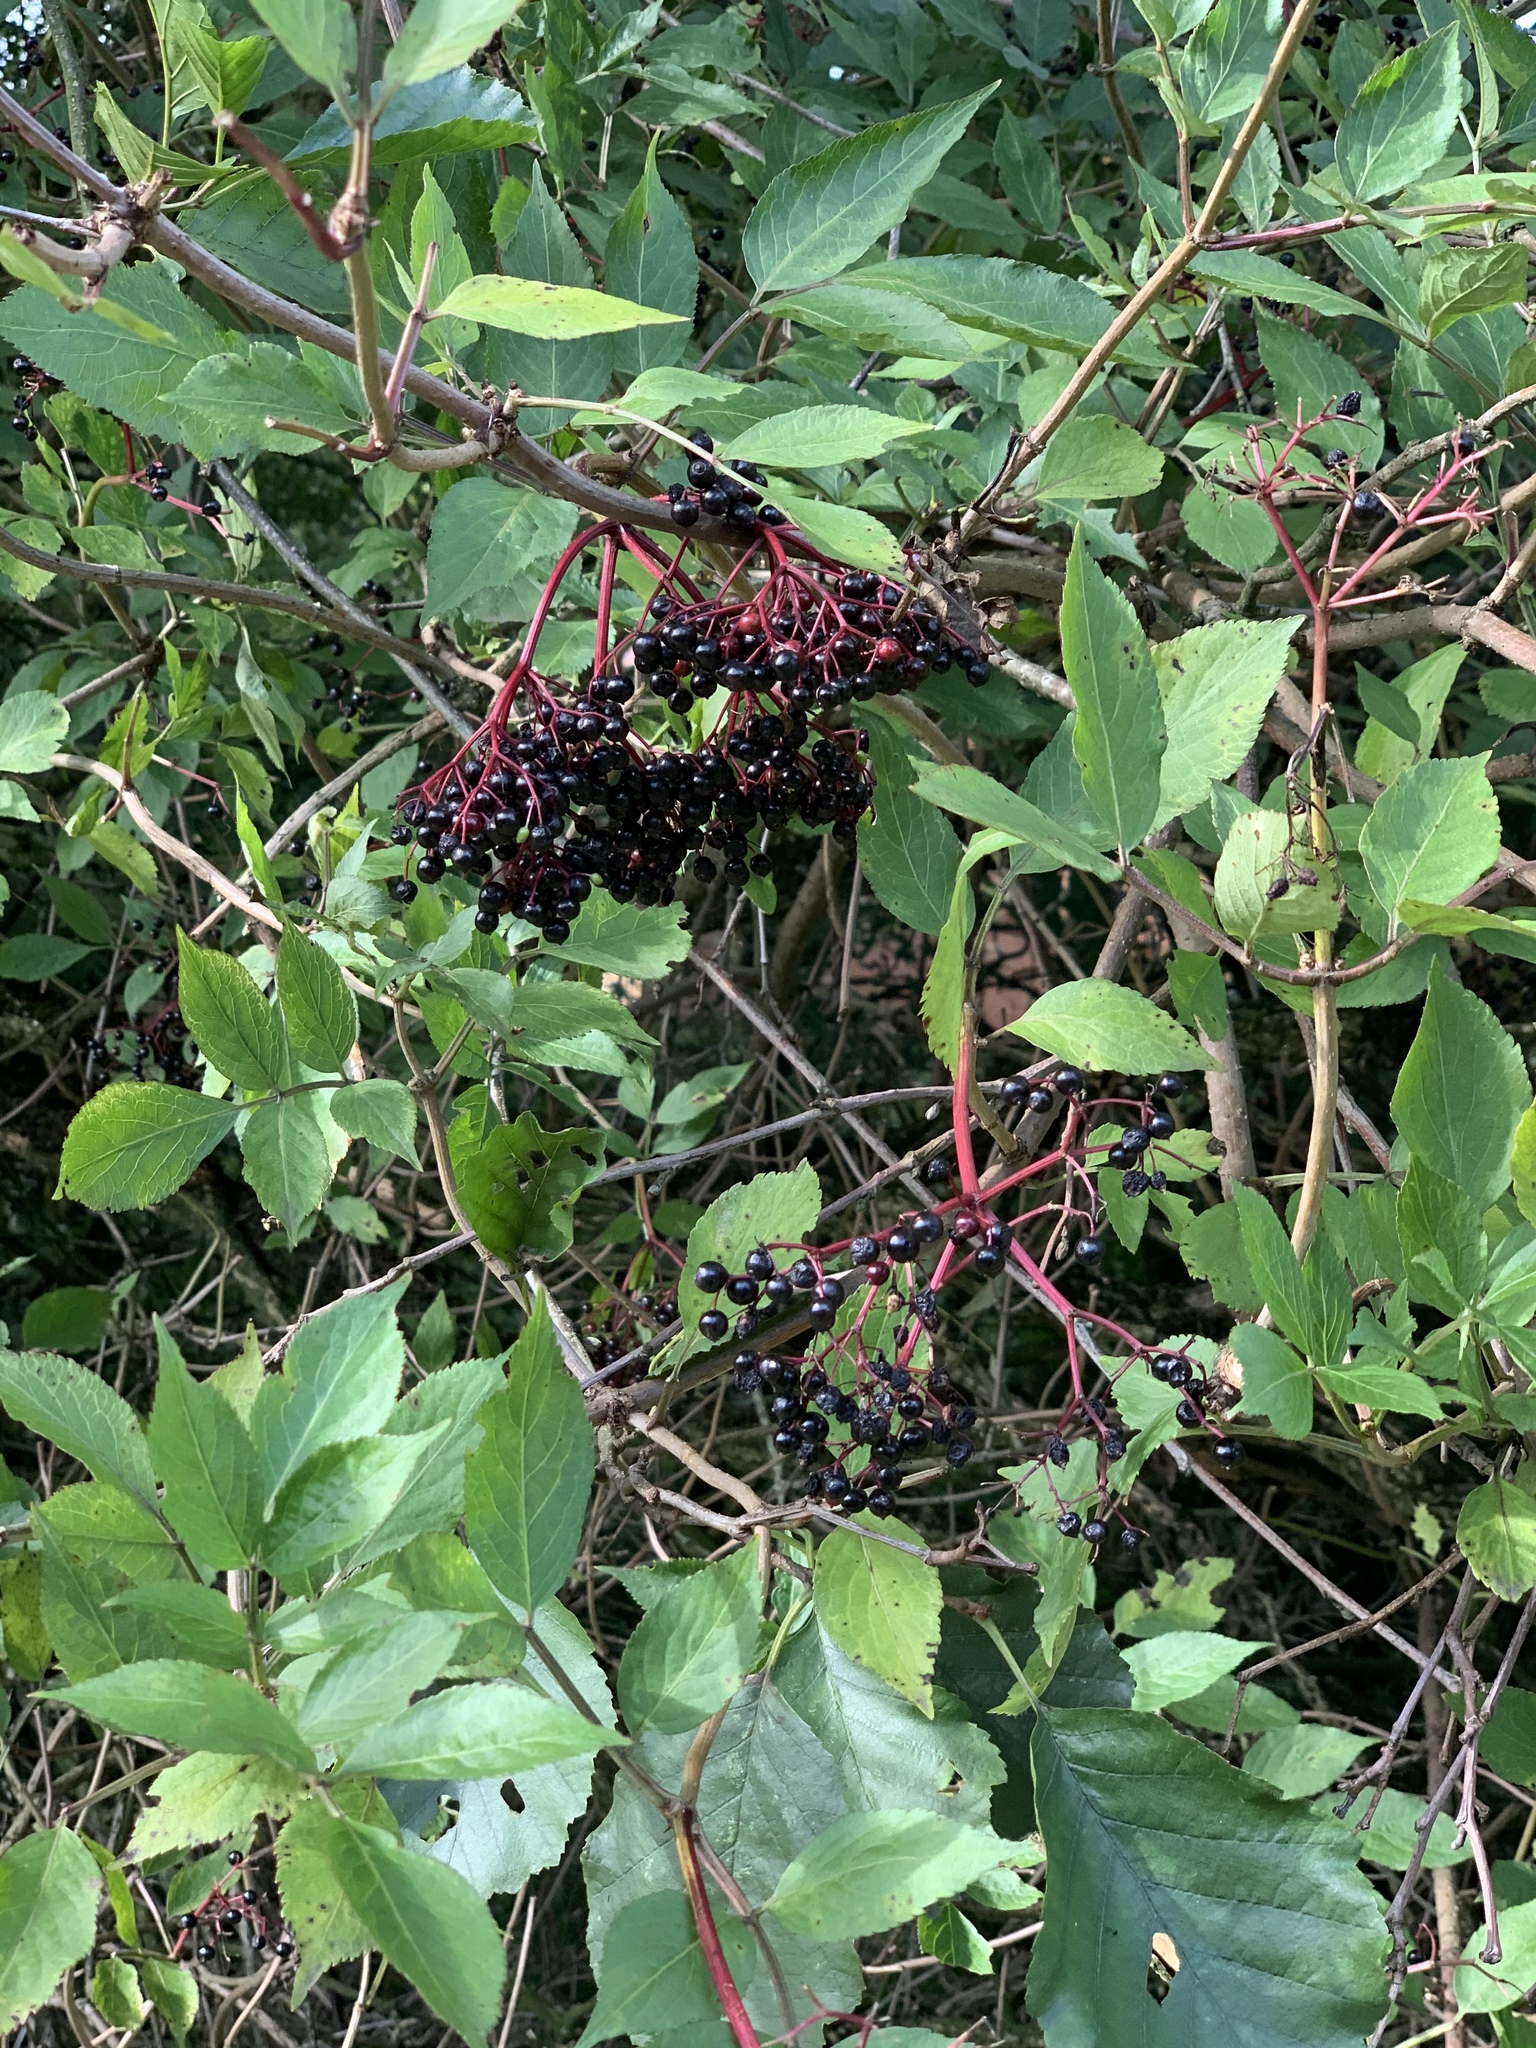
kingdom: Plantae
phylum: Tracheophyta
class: Magnoliopsida
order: Dipsacales
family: Viburnaceae
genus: Sambucus
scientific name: Sambucus nigra
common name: Elder
